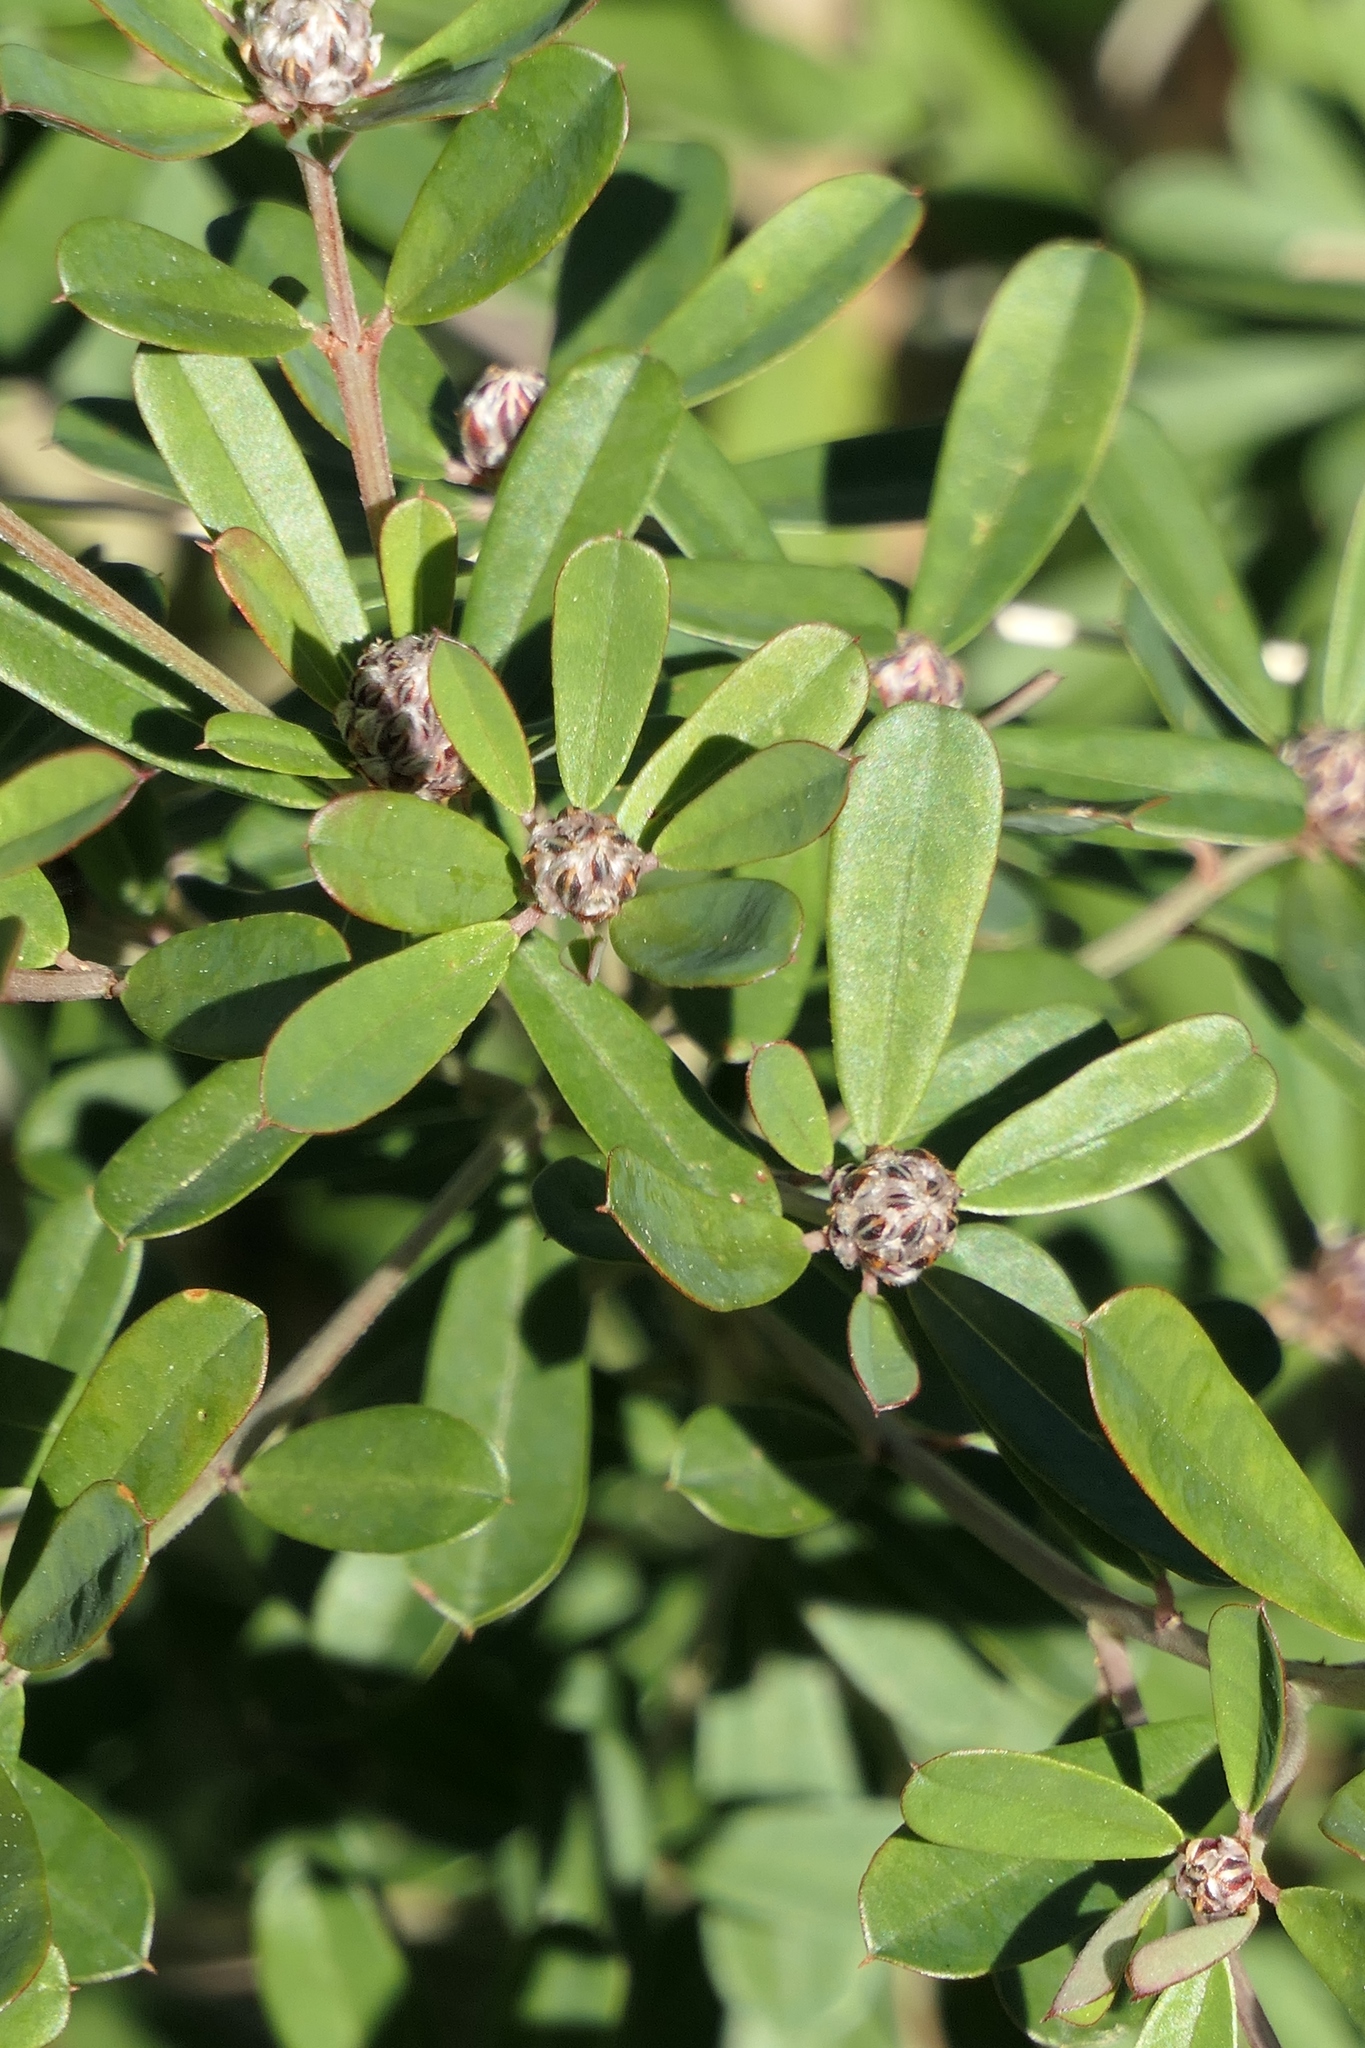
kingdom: Plantae
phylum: Tracheophyta
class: Magnoliopsida
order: Fabales
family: Fabaceae
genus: Pultenaea
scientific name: Pultenaea daphnoides
